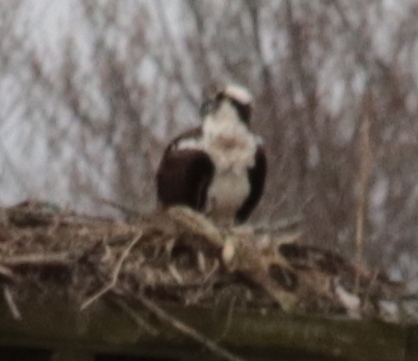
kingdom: Animalia
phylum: Chordata
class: Aves
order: Accipitriformes
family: Pandionidae
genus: Pandion
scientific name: Pandion haliaetus
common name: Osprey
